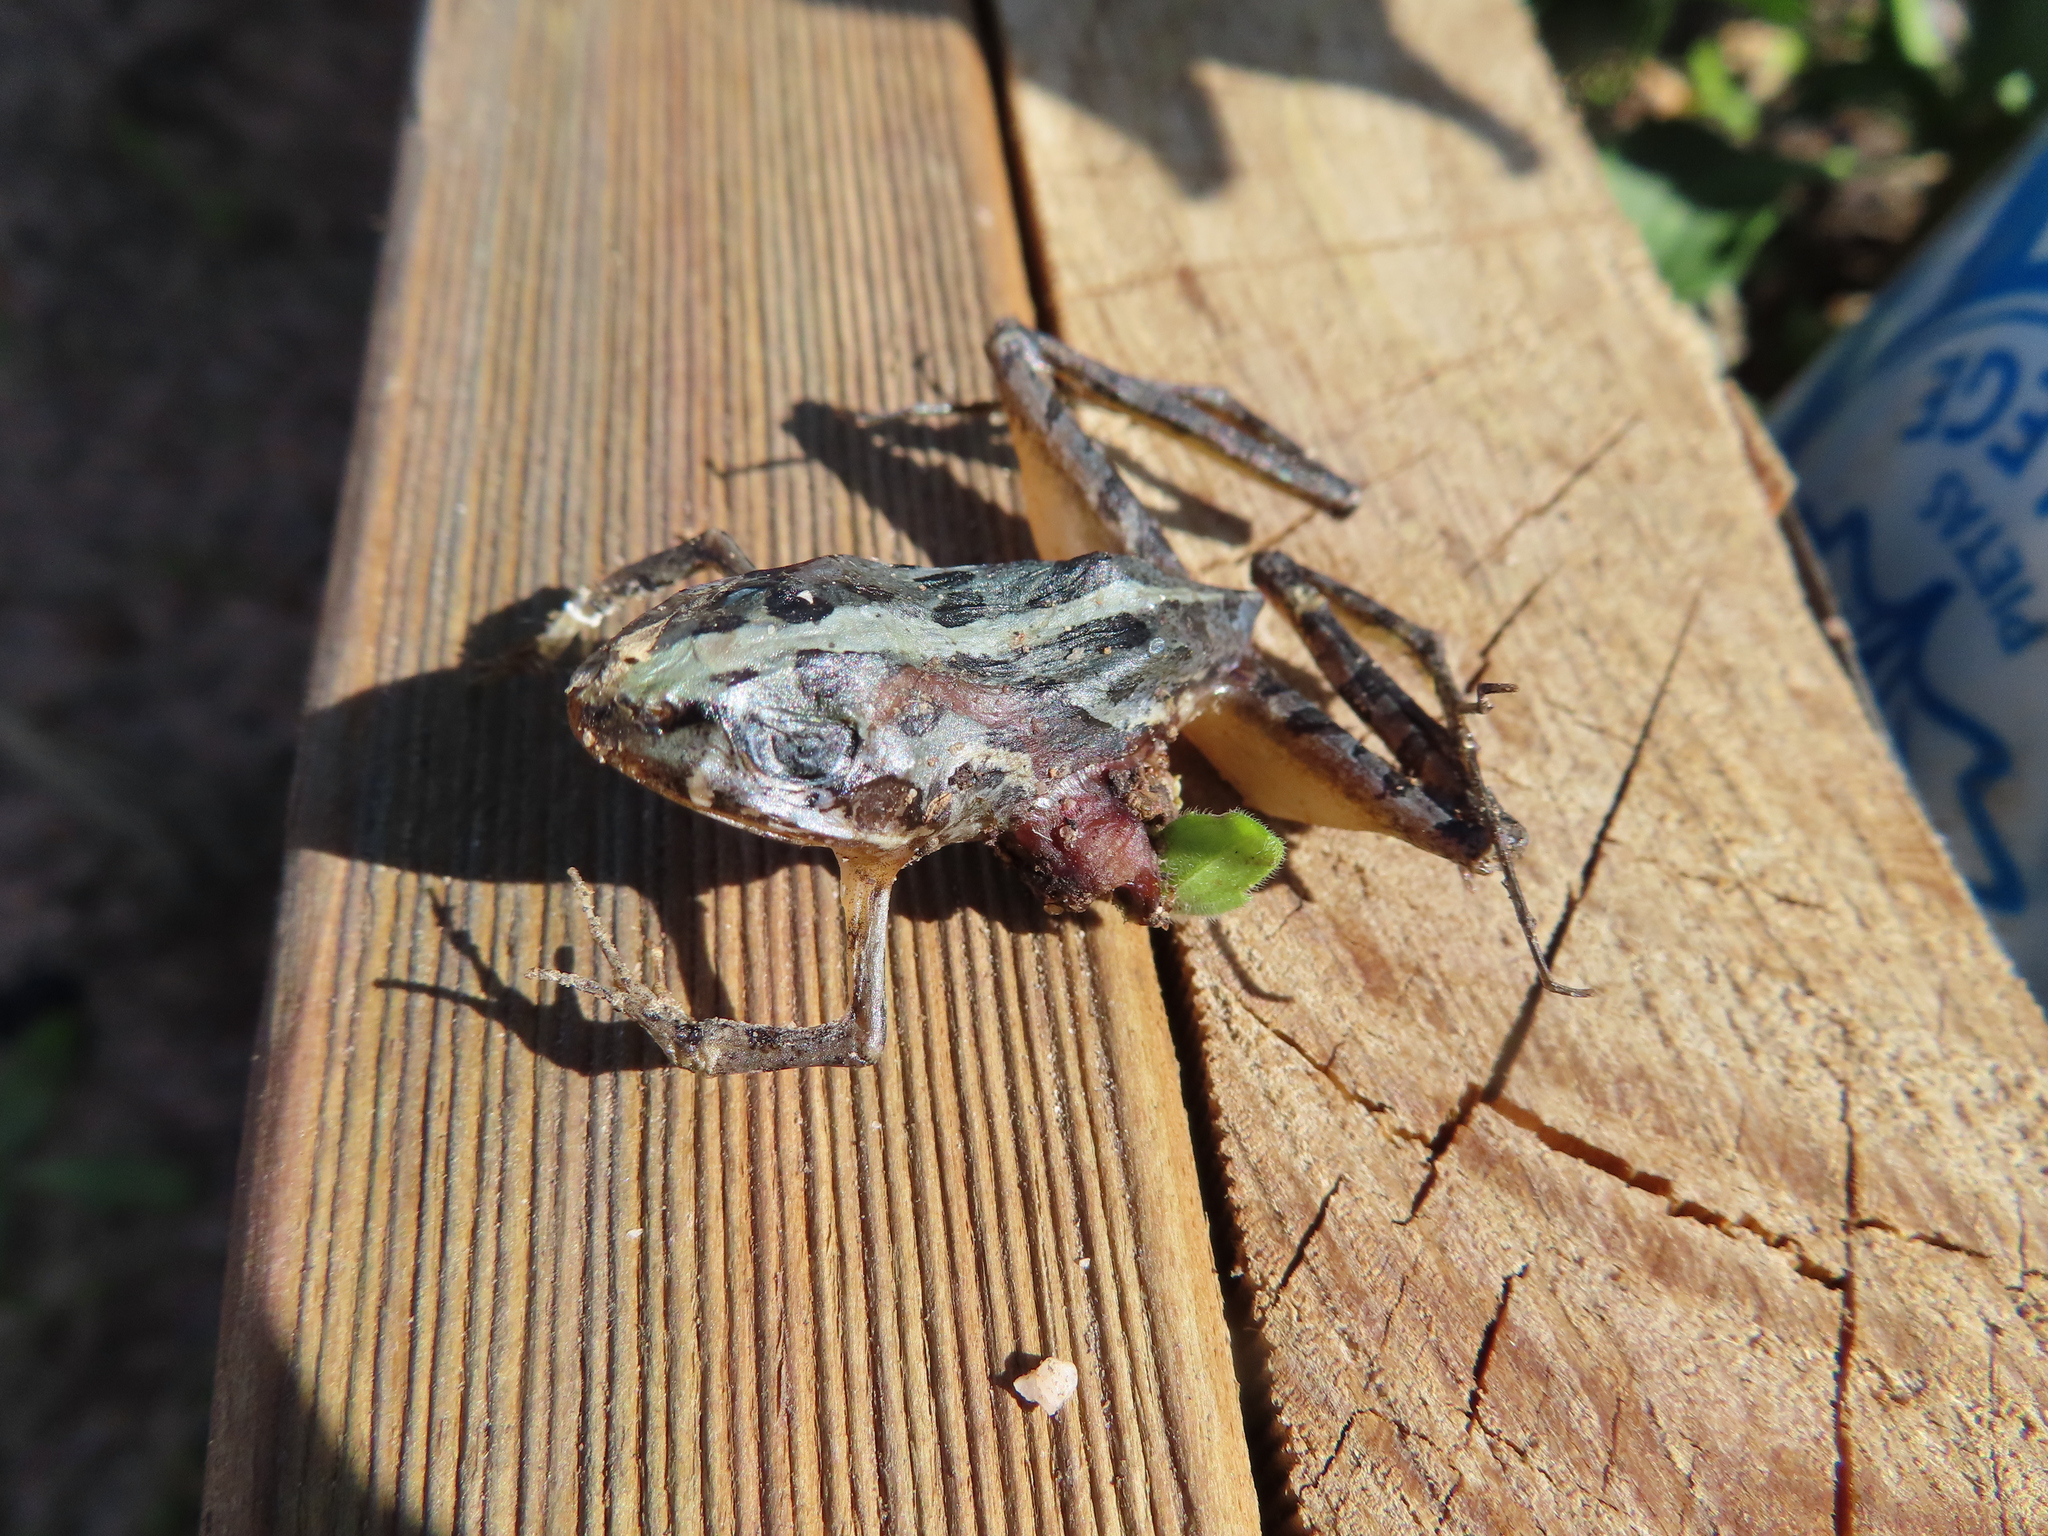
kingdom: Animalia
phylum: Chordata
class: Amphibia
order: Anura
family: Pyxicephalidae
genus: Strongylopus
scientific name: Strongylopus grayii
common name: Gray's stream frog
